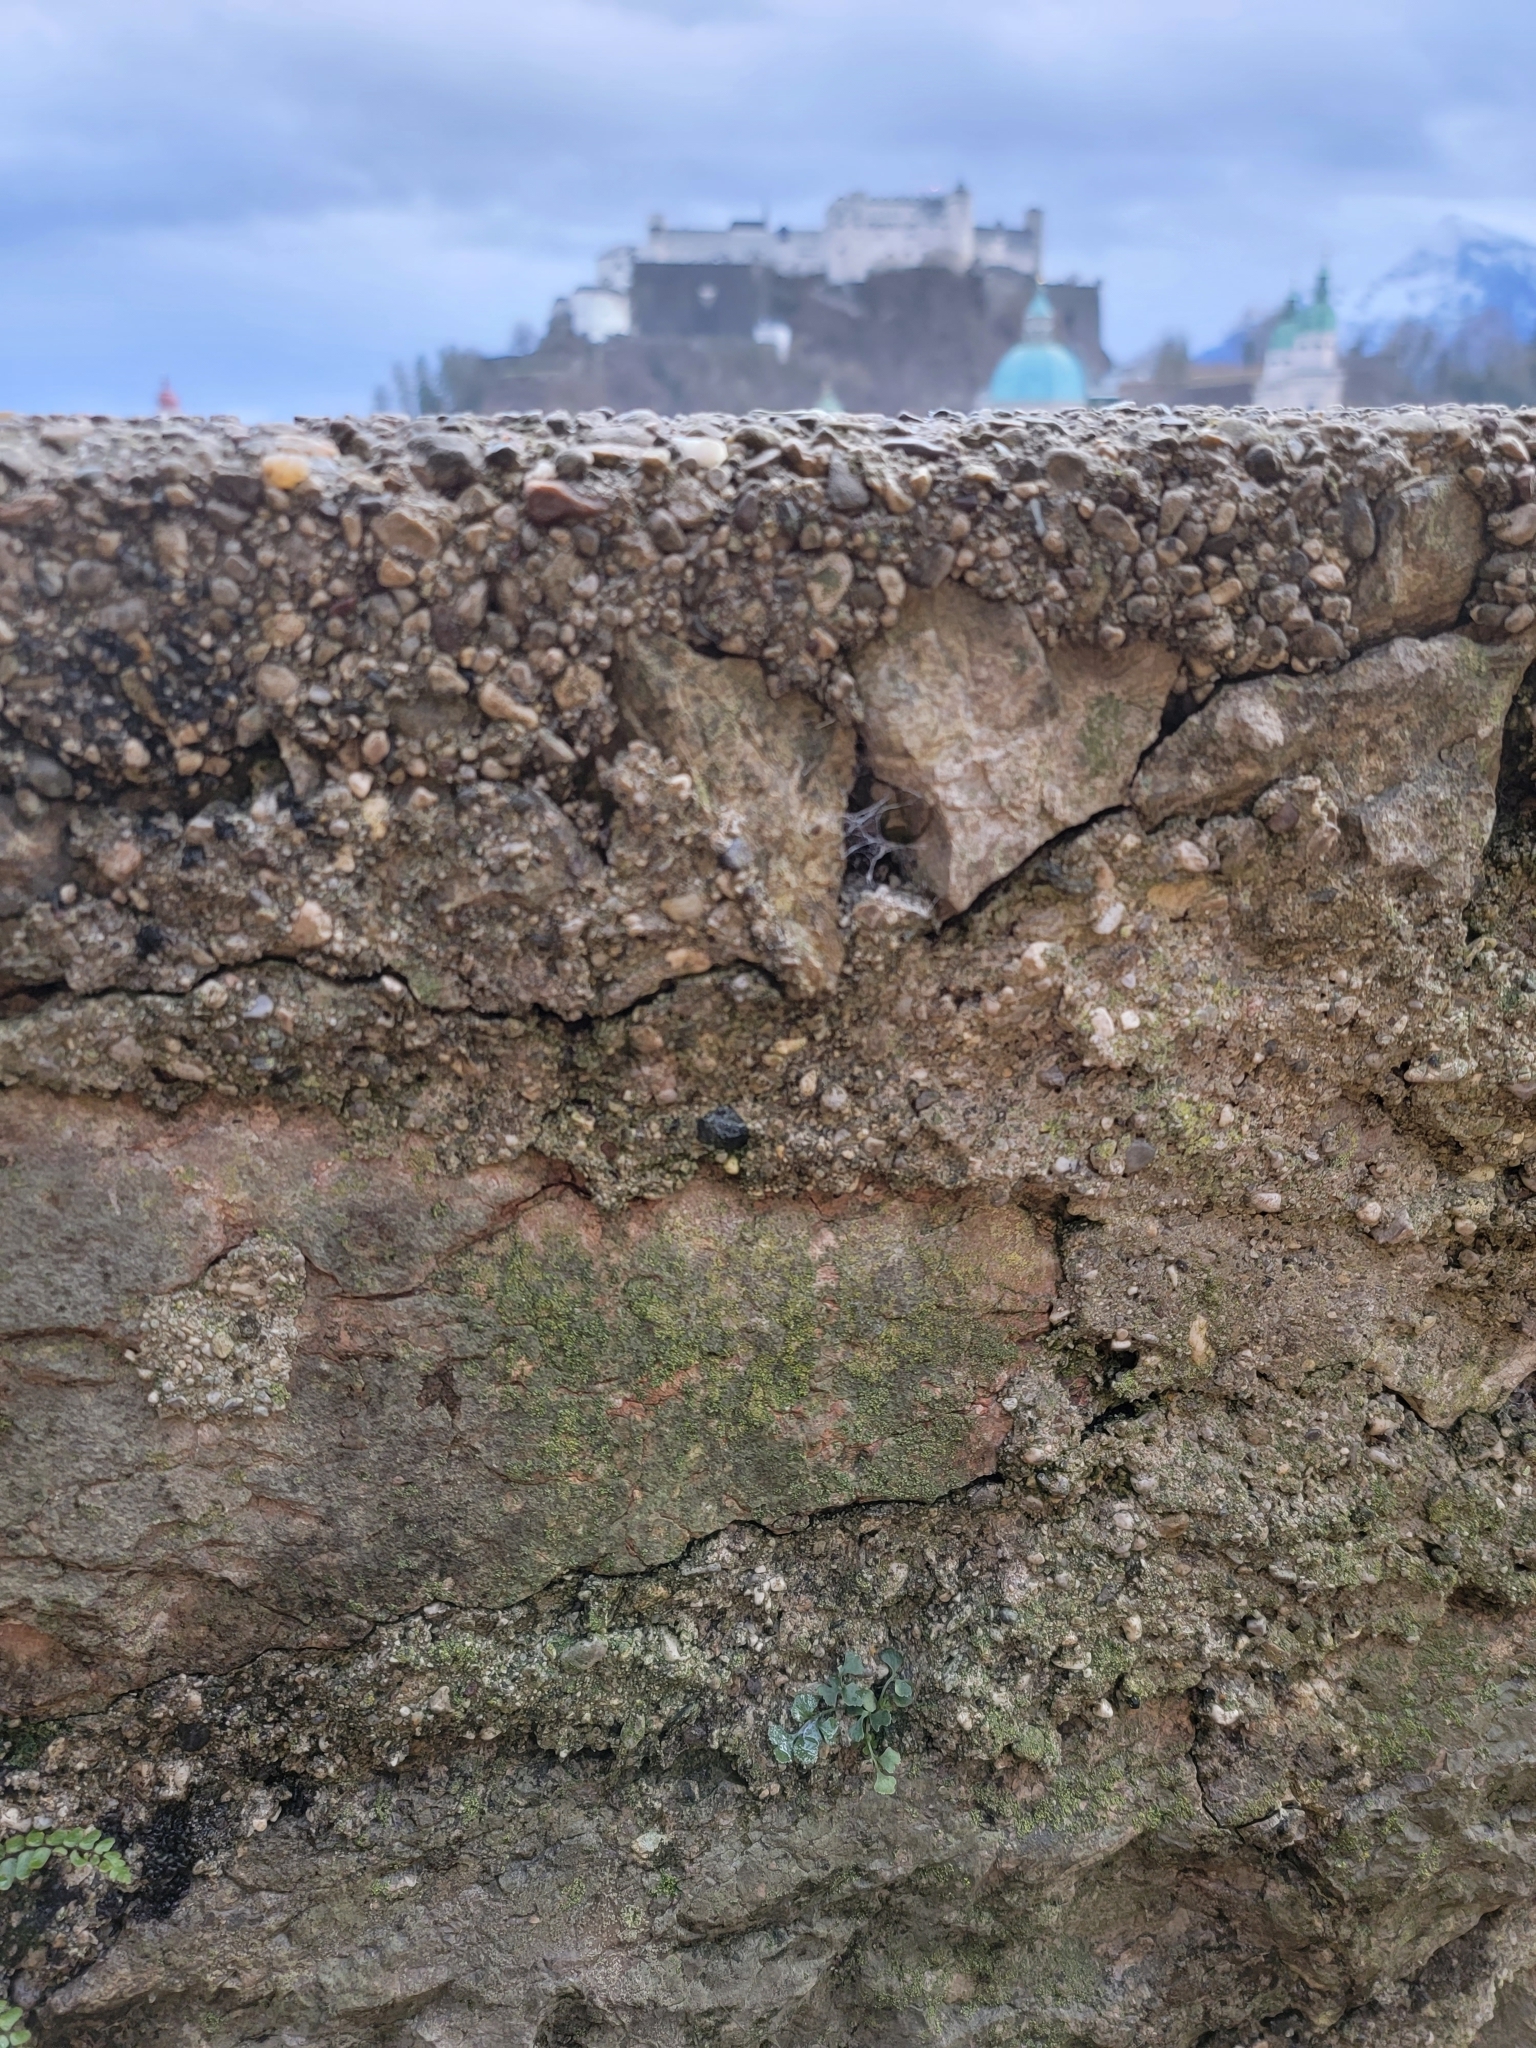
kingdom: Plantae
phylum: Tracheophyta
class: Polypodiopsida
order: Polypodiales
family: Aspleniaceae
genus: Asplenium
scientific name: Asplenium ruta-muraria
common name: Wall-rue
